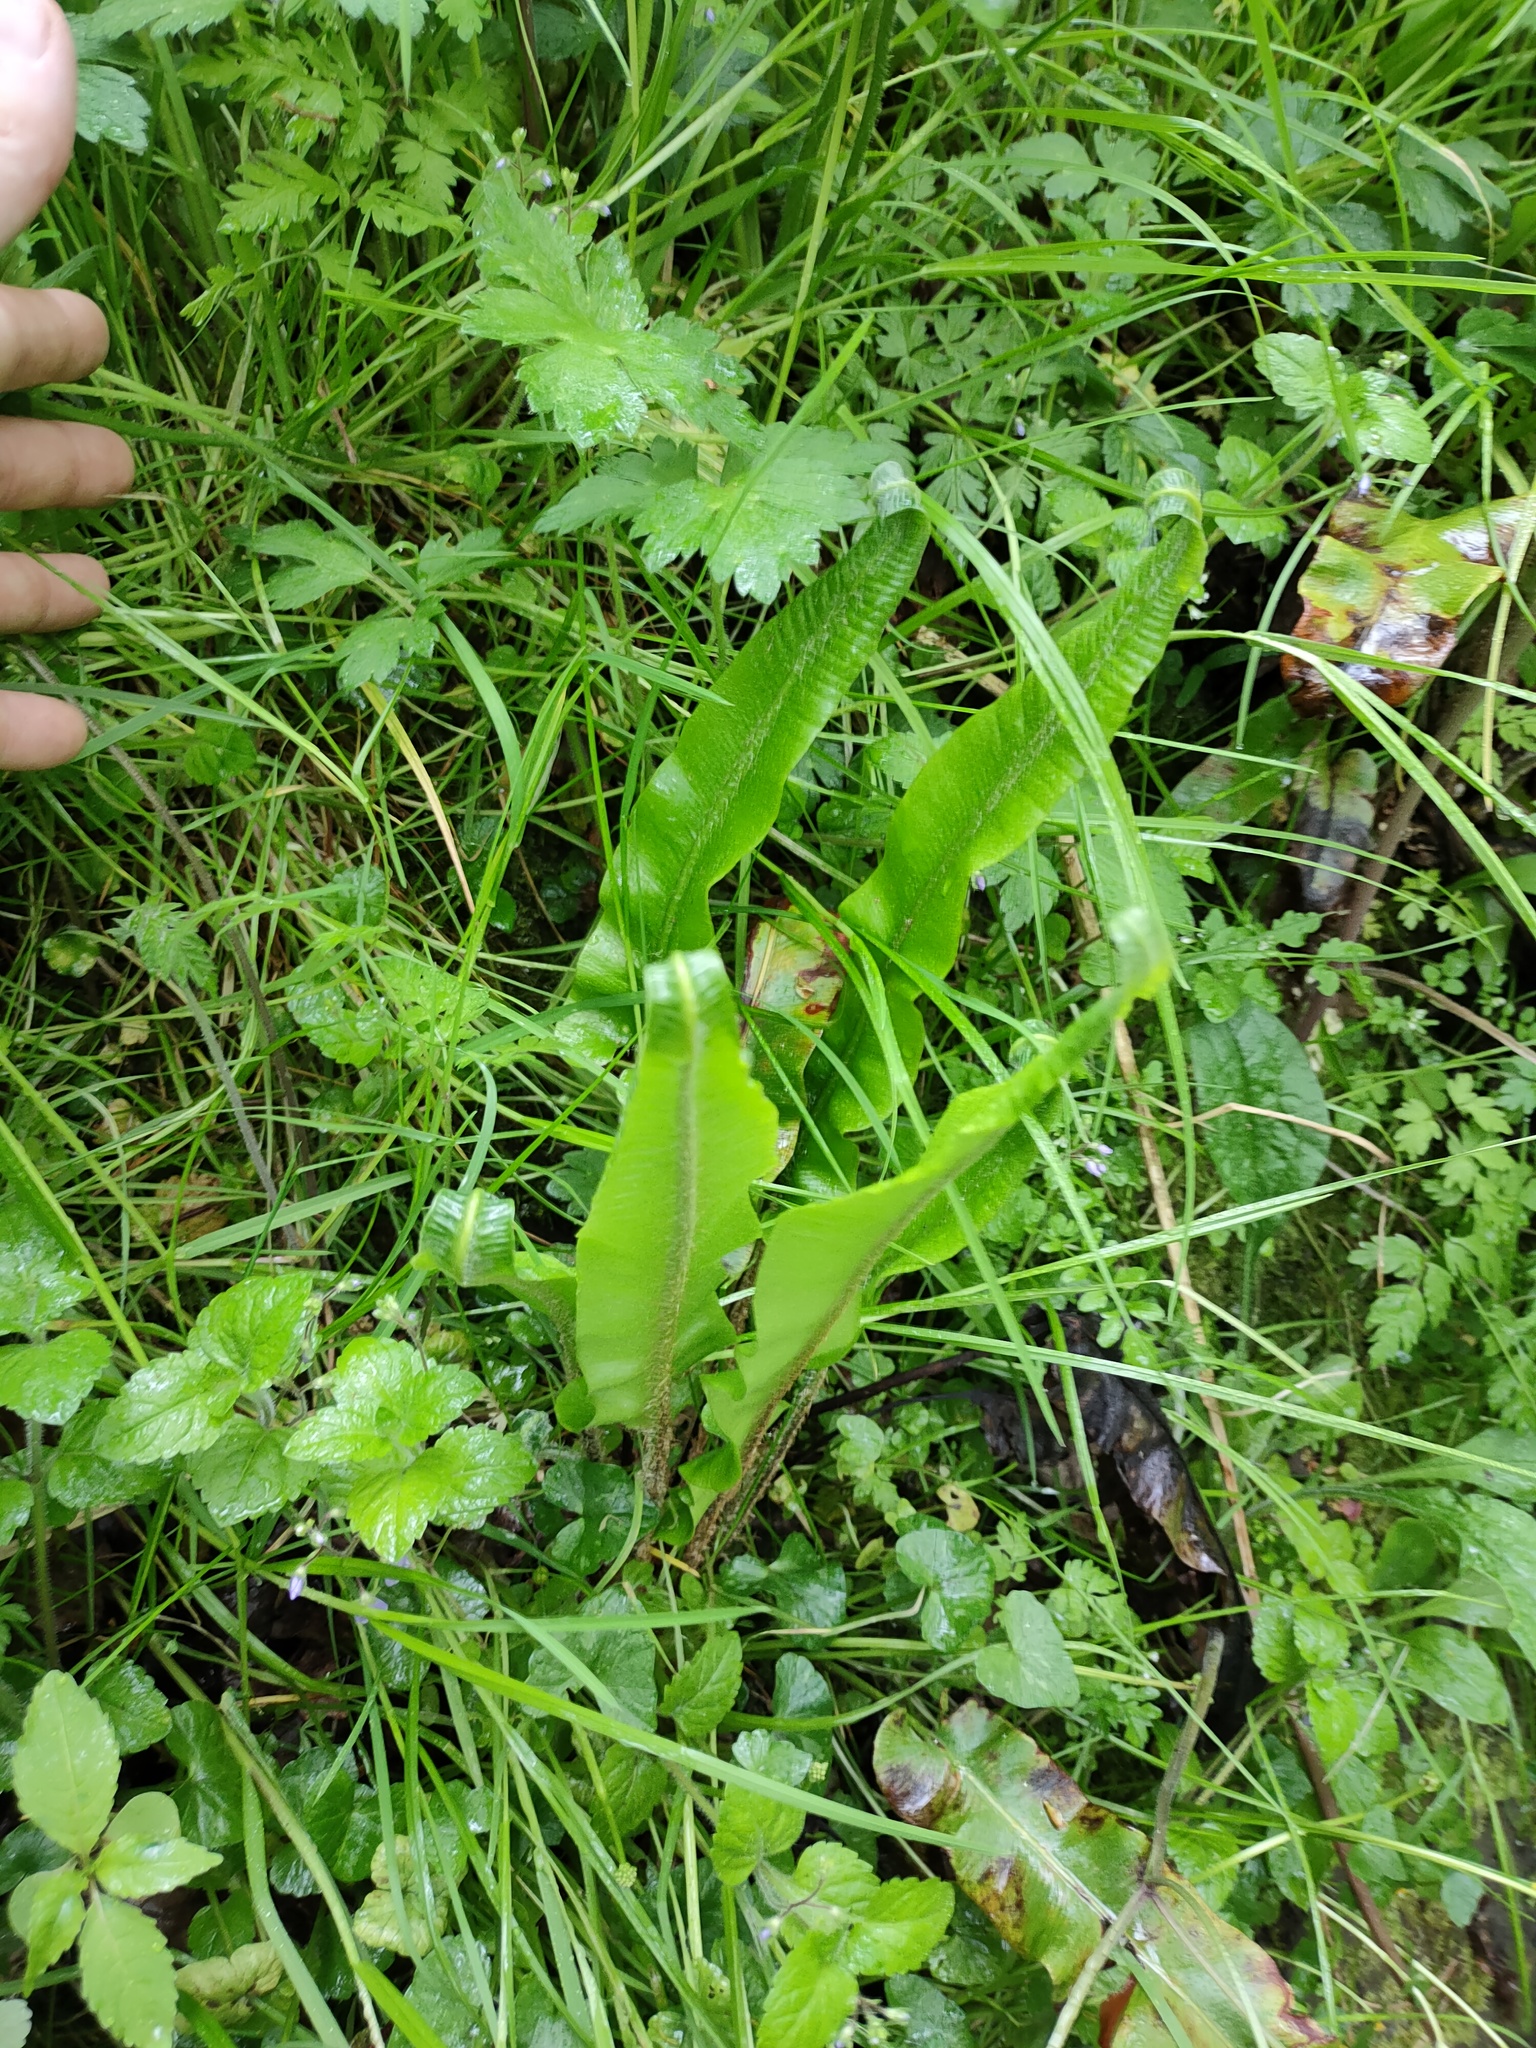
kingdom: Plantae
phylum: Tracheophyta
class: Polypodiopsida
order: Polypodiales
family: Aspleniaceae
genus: Asplenium
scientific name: Asplenium scolopendrium
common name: Hart's-tongue fern
